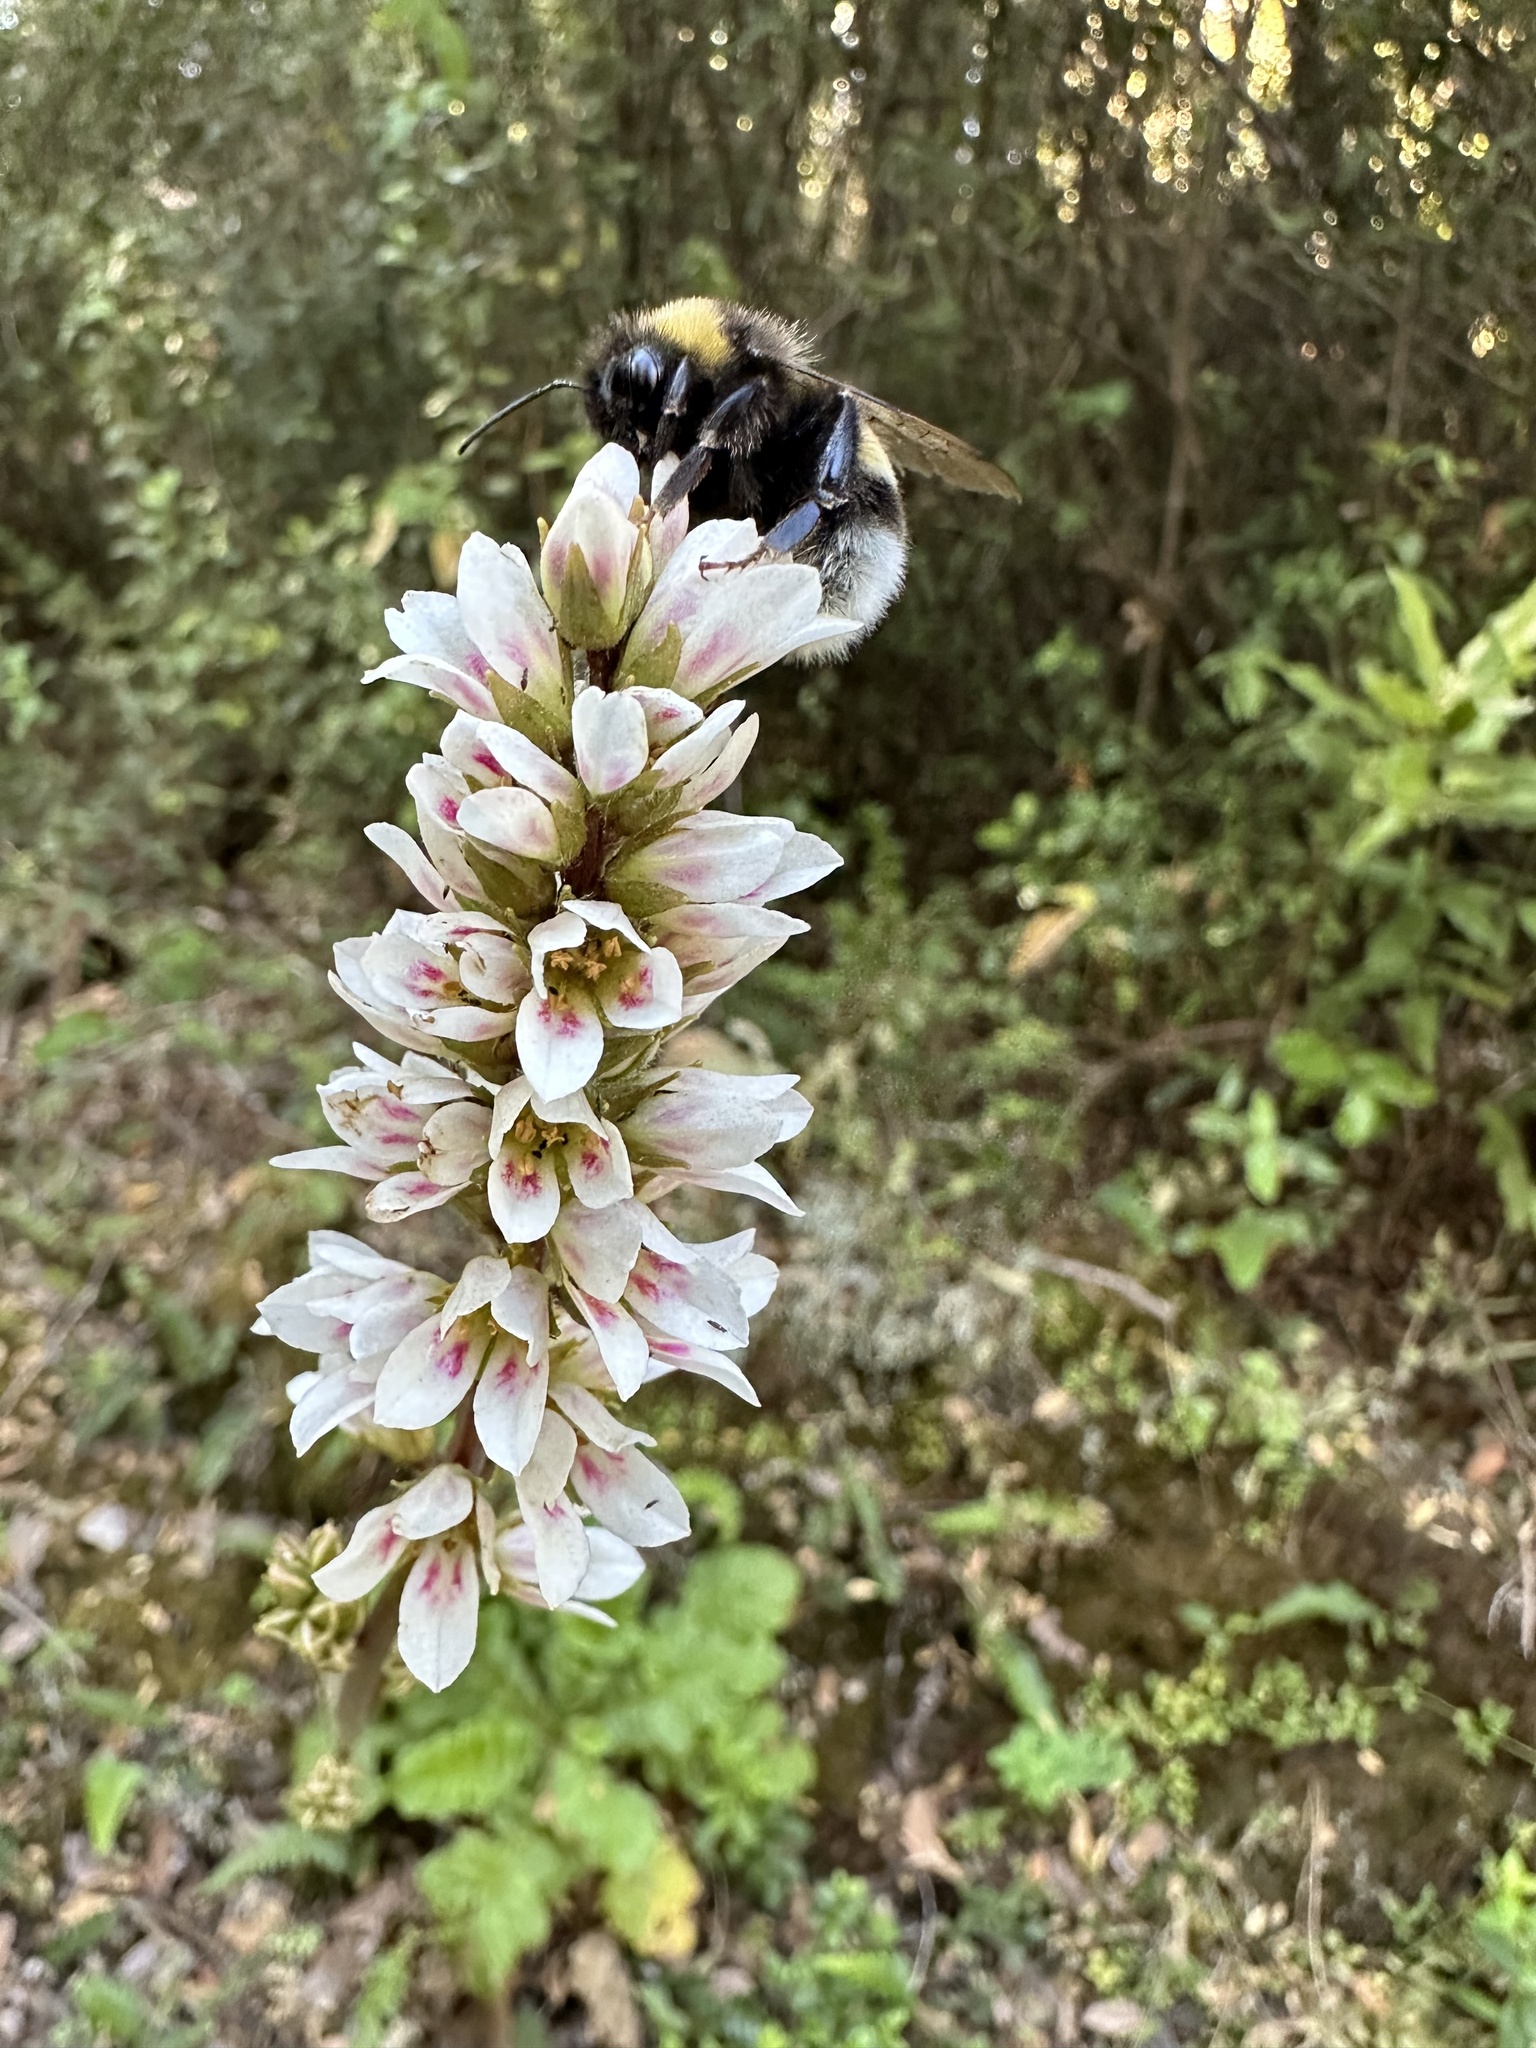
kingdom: Plantae
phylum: Tracheophyta
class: Magnoliopsida
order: Geraniales
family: Francoaceae
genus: Francoa
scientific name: Francoa appendiculata
